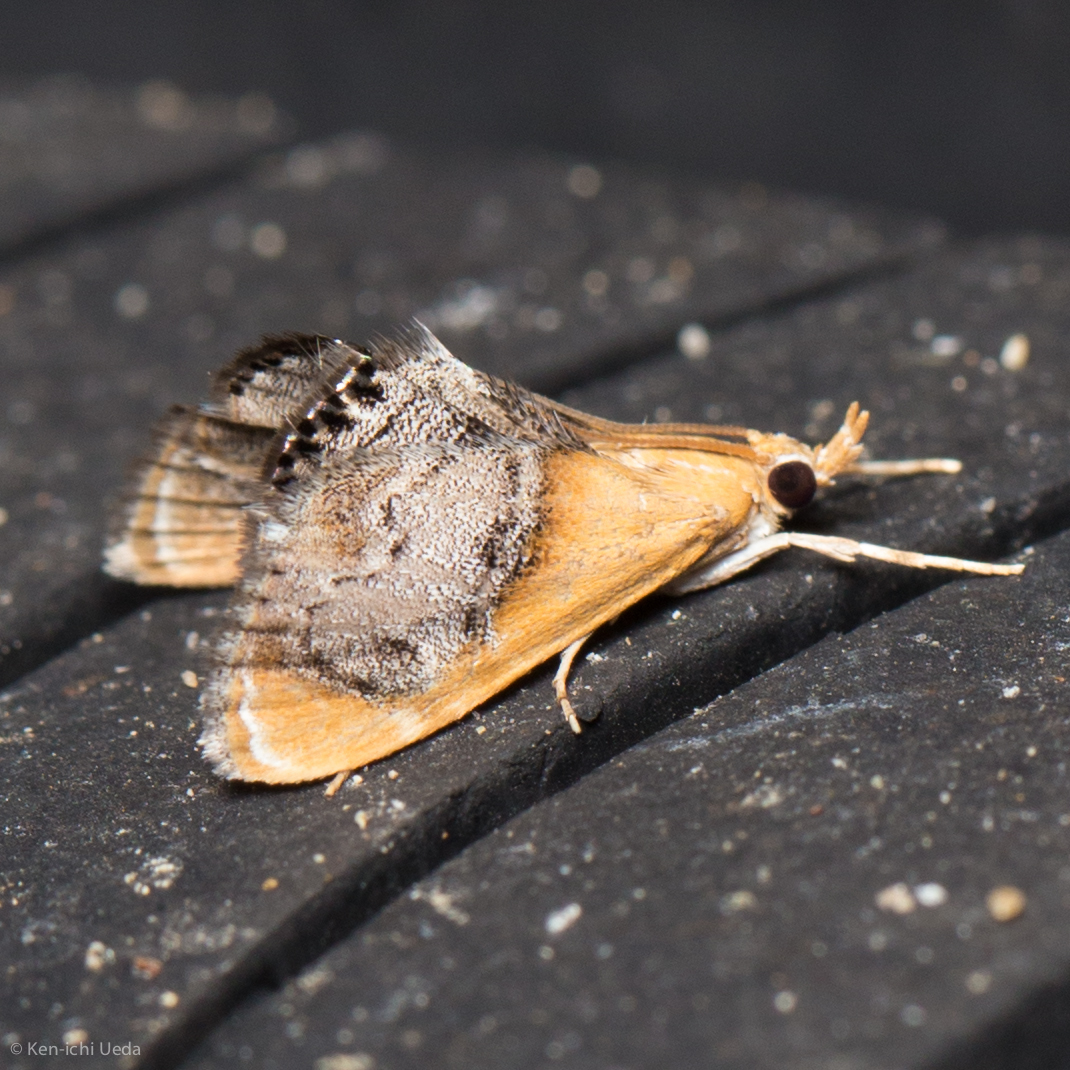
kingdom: Animalia
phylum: Arthropoda
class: Insecta
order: Lepidoptera
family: Crambidae
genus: Chalcoela
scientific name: Chalcoela iphitalis
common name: Sooty-winged chalcoela moth
